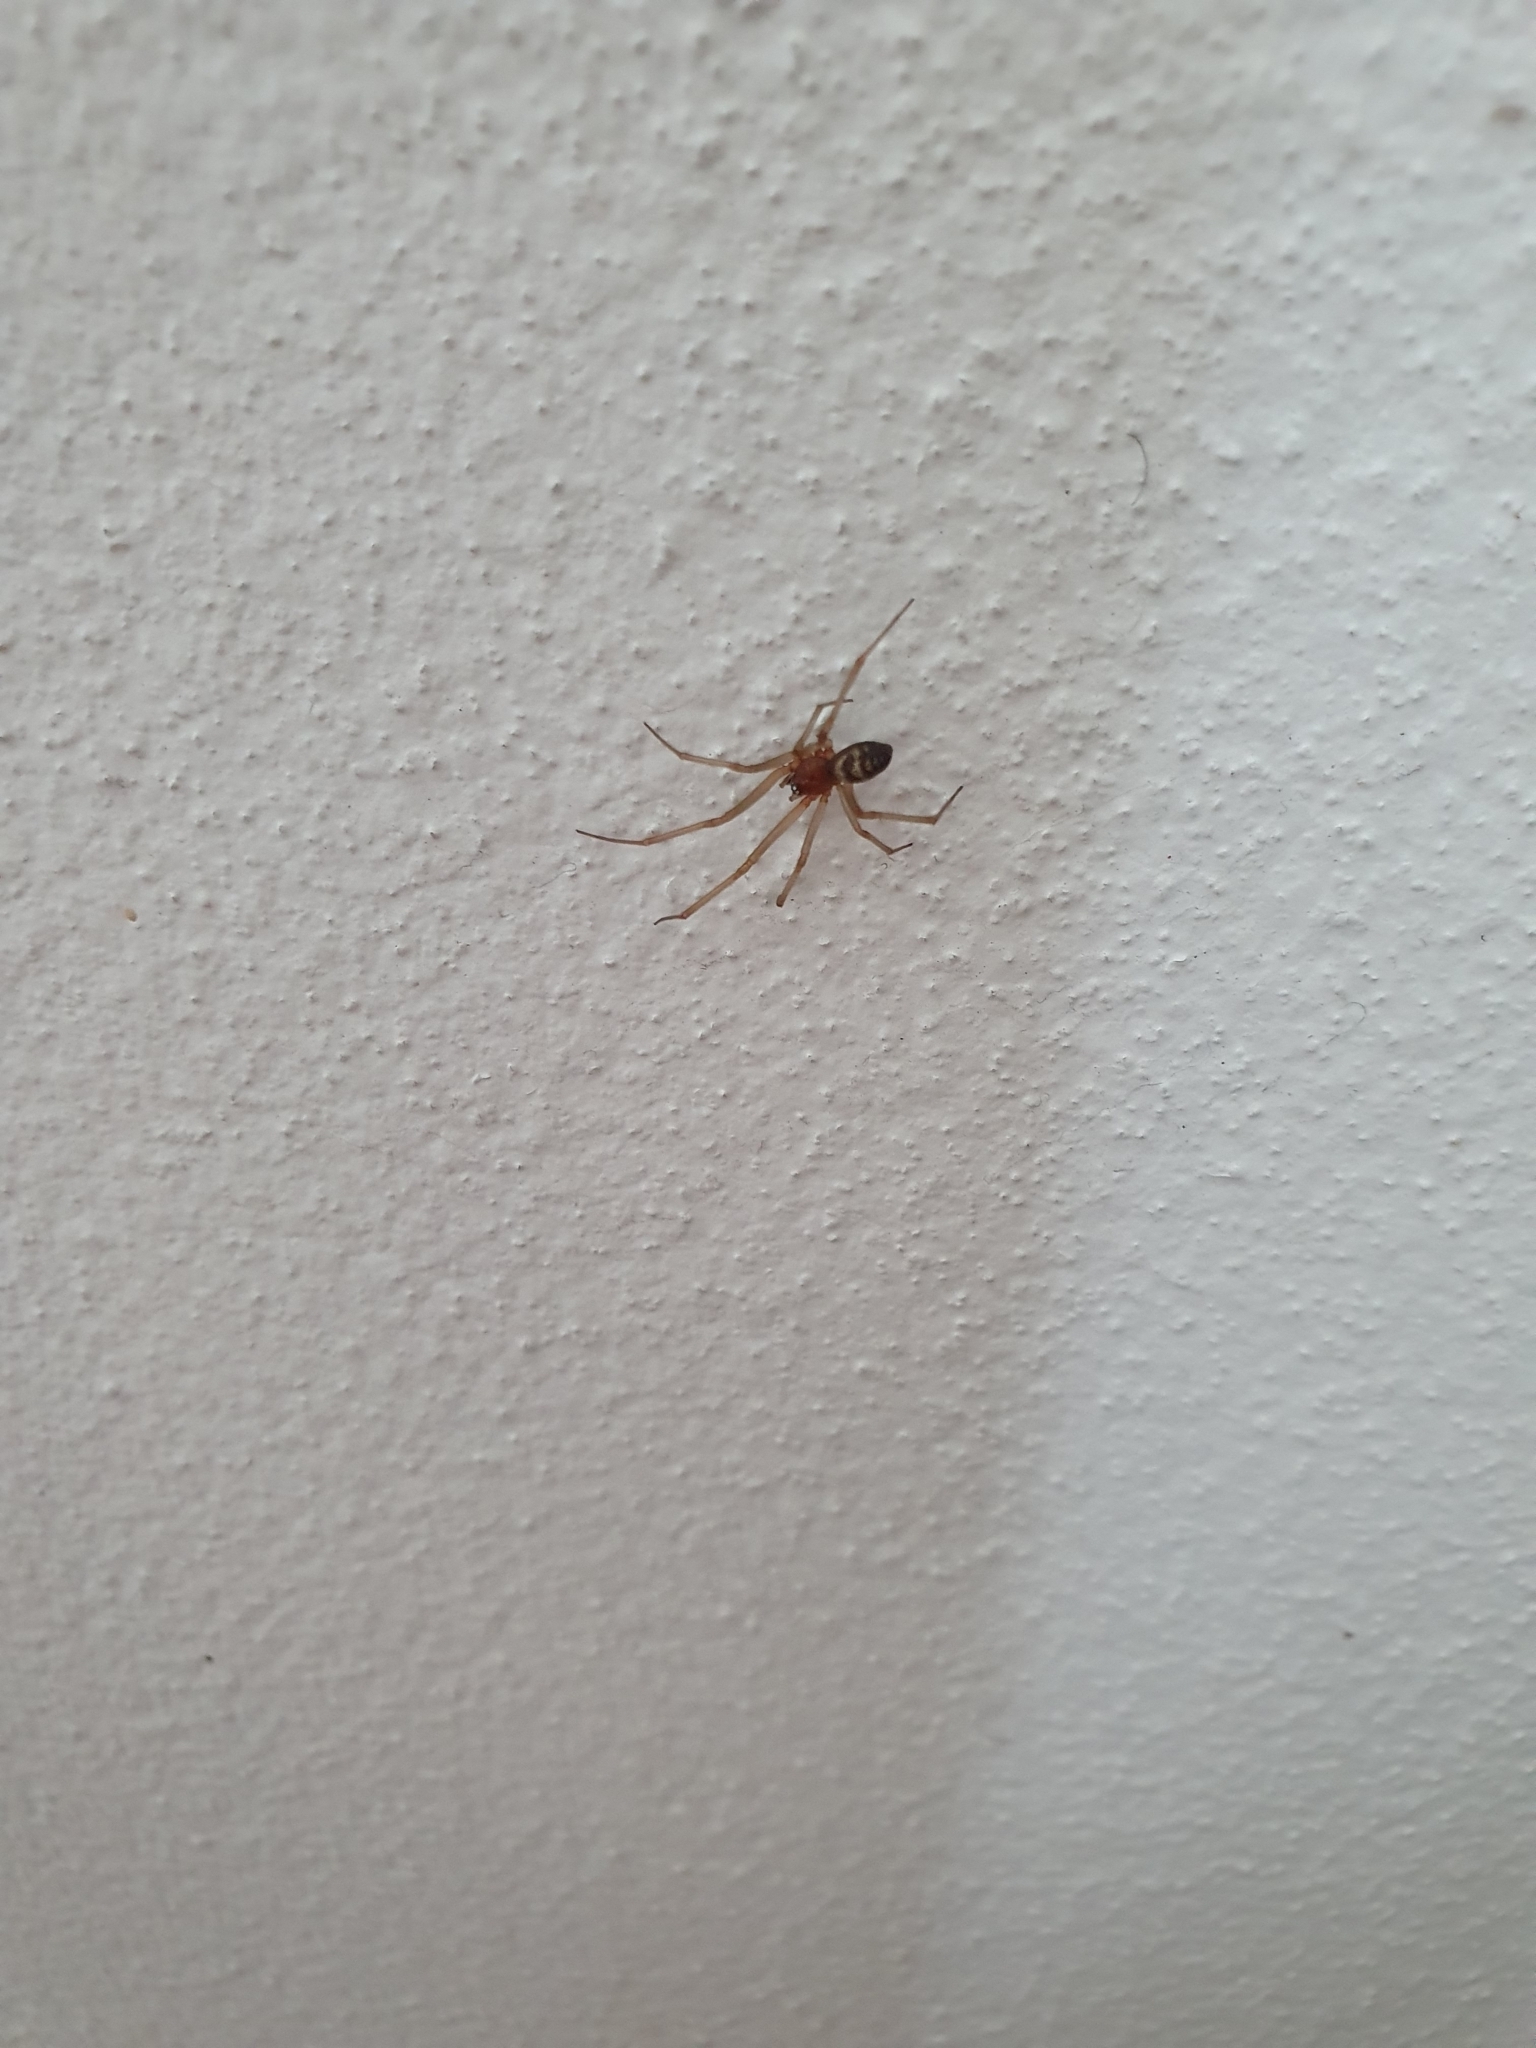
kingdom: Animalia
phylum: Arthropoda
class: Arachnida
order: Araneae
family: Theridiidae
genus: Steatoda
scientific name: Steatoda grossa
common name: False black widow
